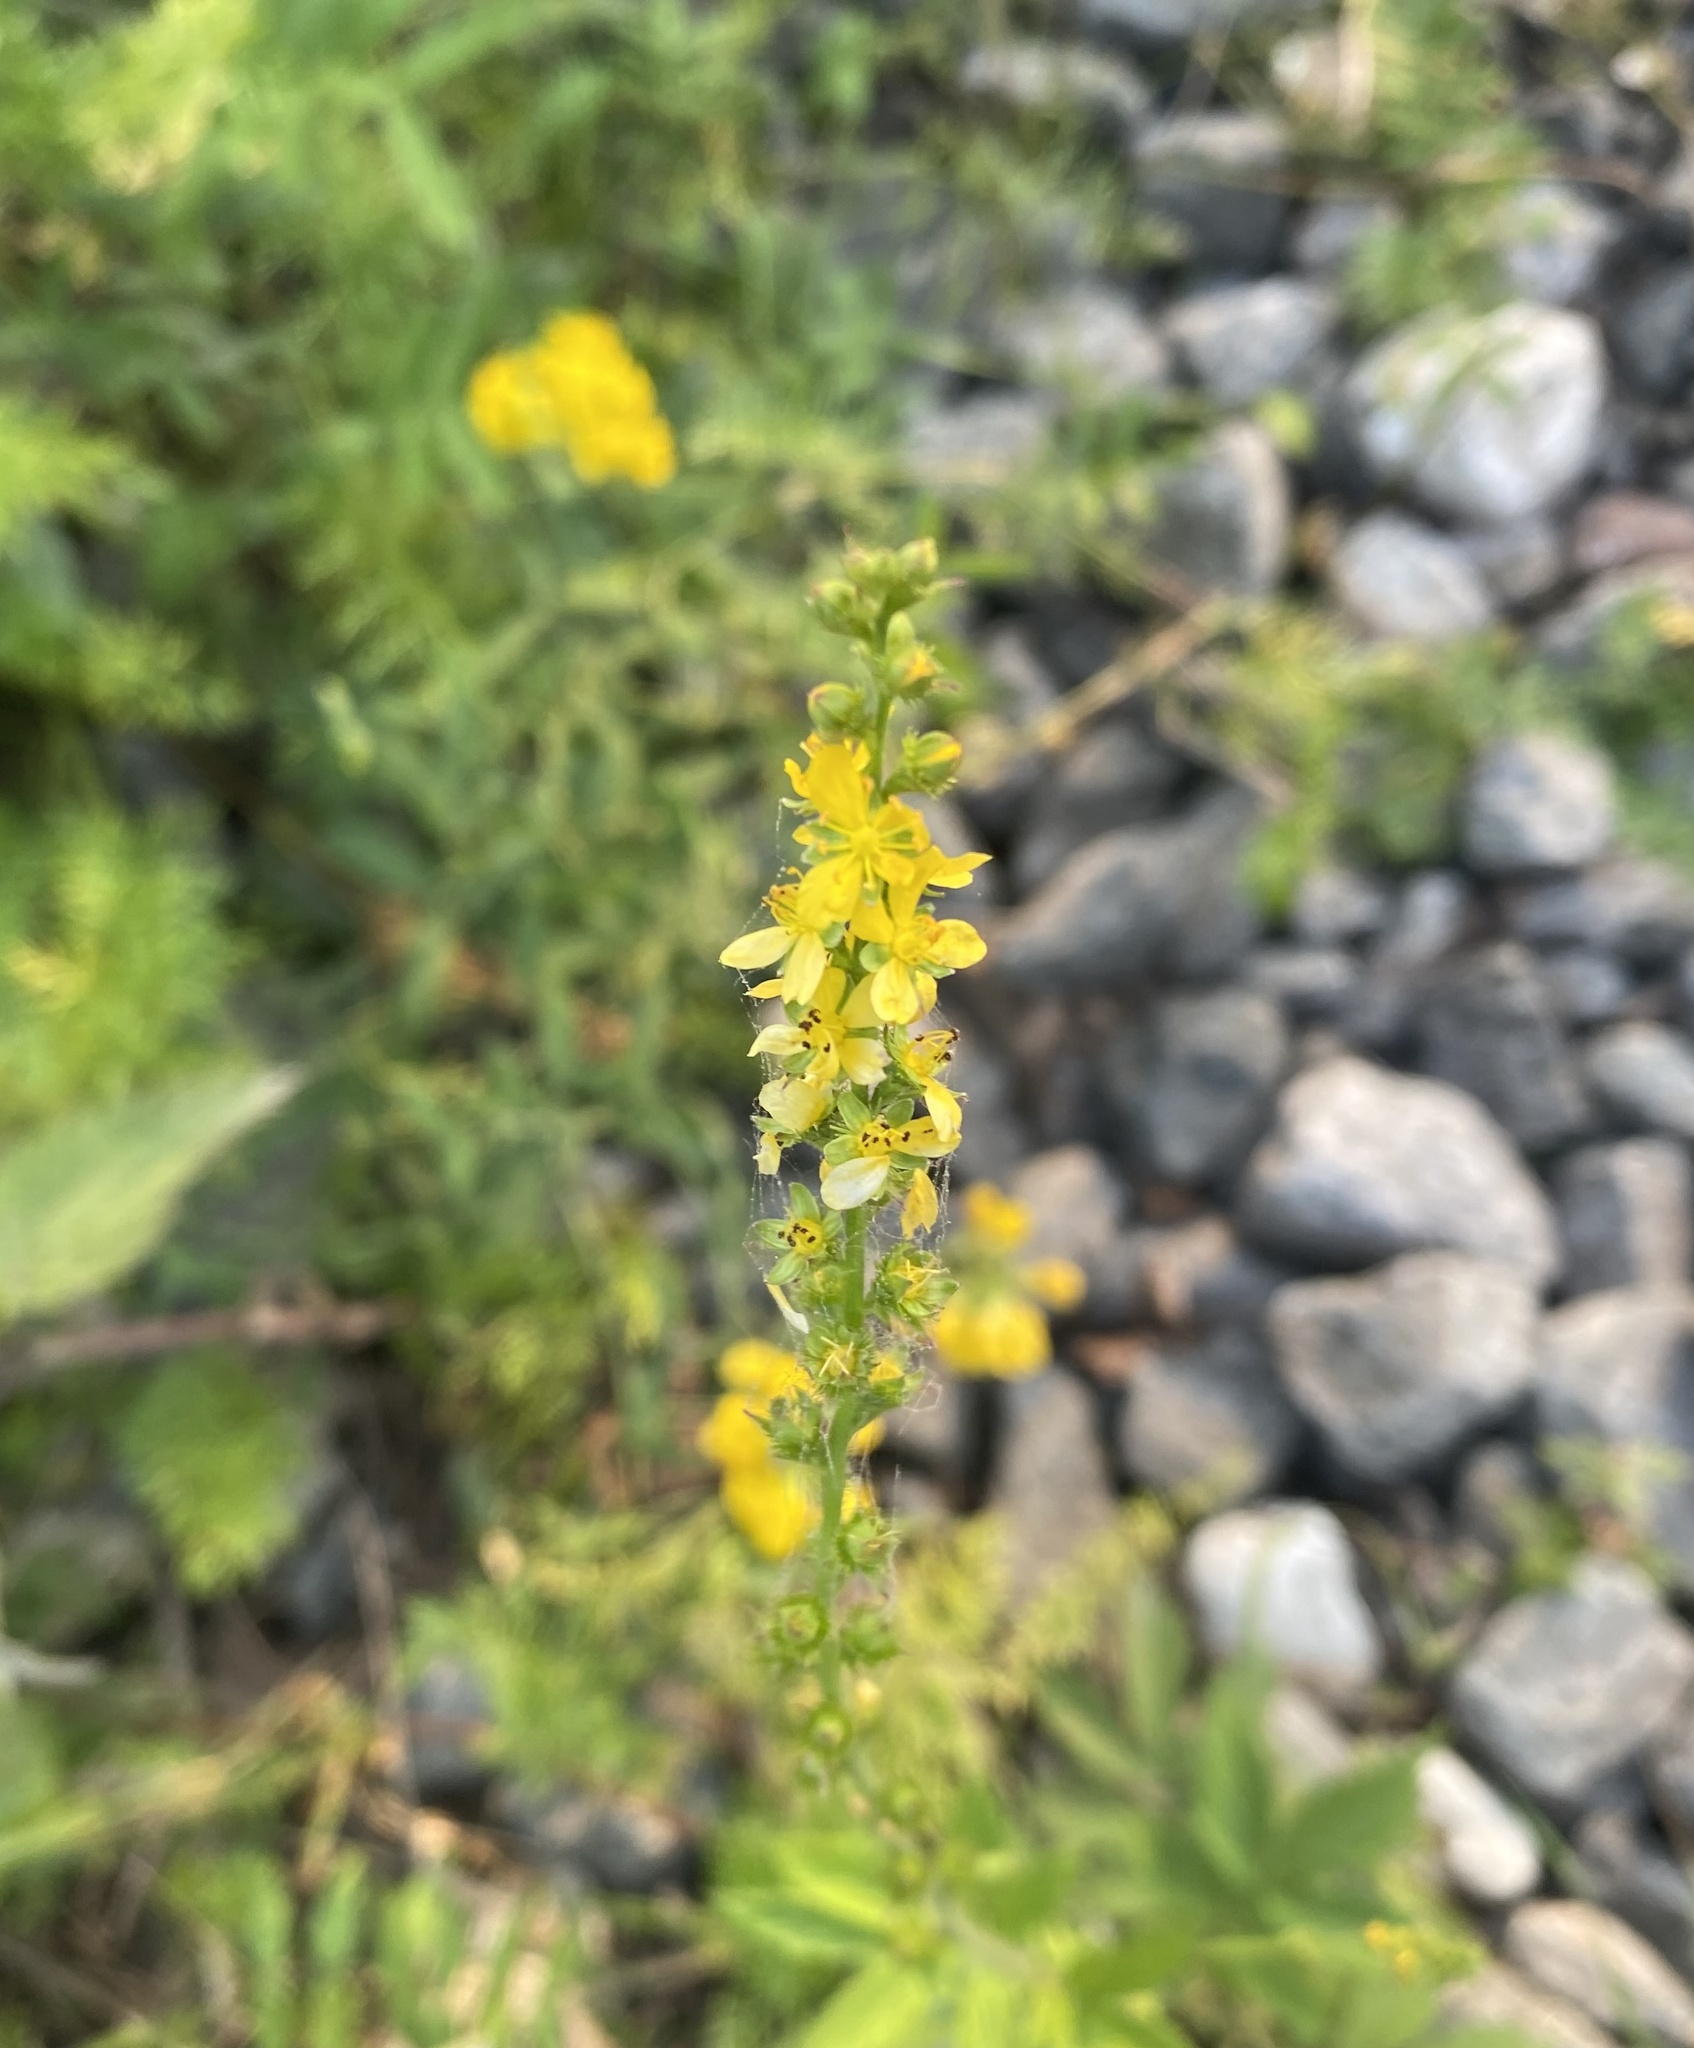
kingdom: Plantae
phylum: Tracheophyta
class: Magnoliopsida
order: Rosales
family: Rosaceae
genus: Agrimonia
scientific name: Agrimonia pilosa
